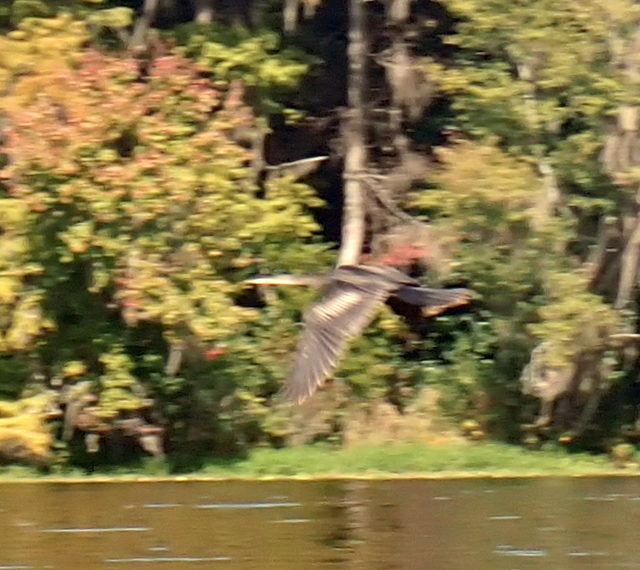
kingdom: Animalia
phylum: Chordata
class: Aves
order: Suliformes
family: Anhingidae
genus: Anhinga
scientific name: Anhinga anhinga
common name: Anhinga
